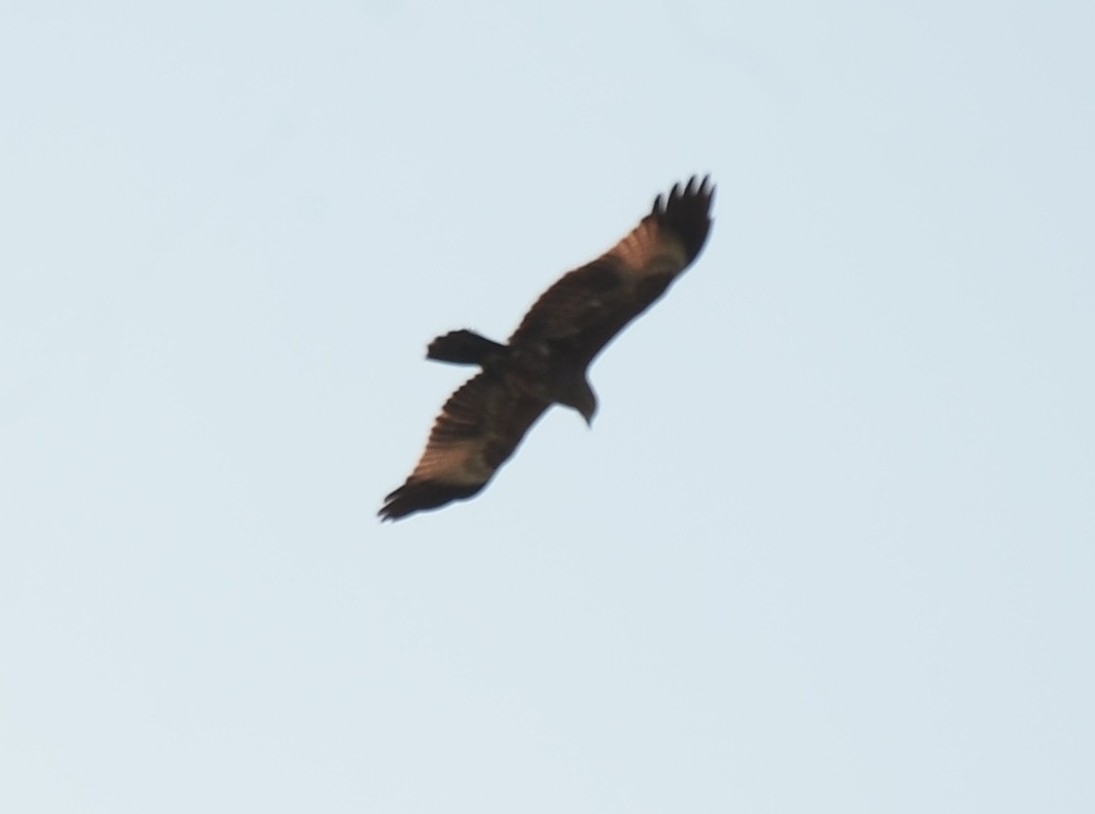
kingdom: Animalia
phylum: Chordata
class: Aves
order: Accipitriformes
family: Accipitridae
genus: Haliastur
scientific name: Haliastur indus
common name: Brahminy kite
